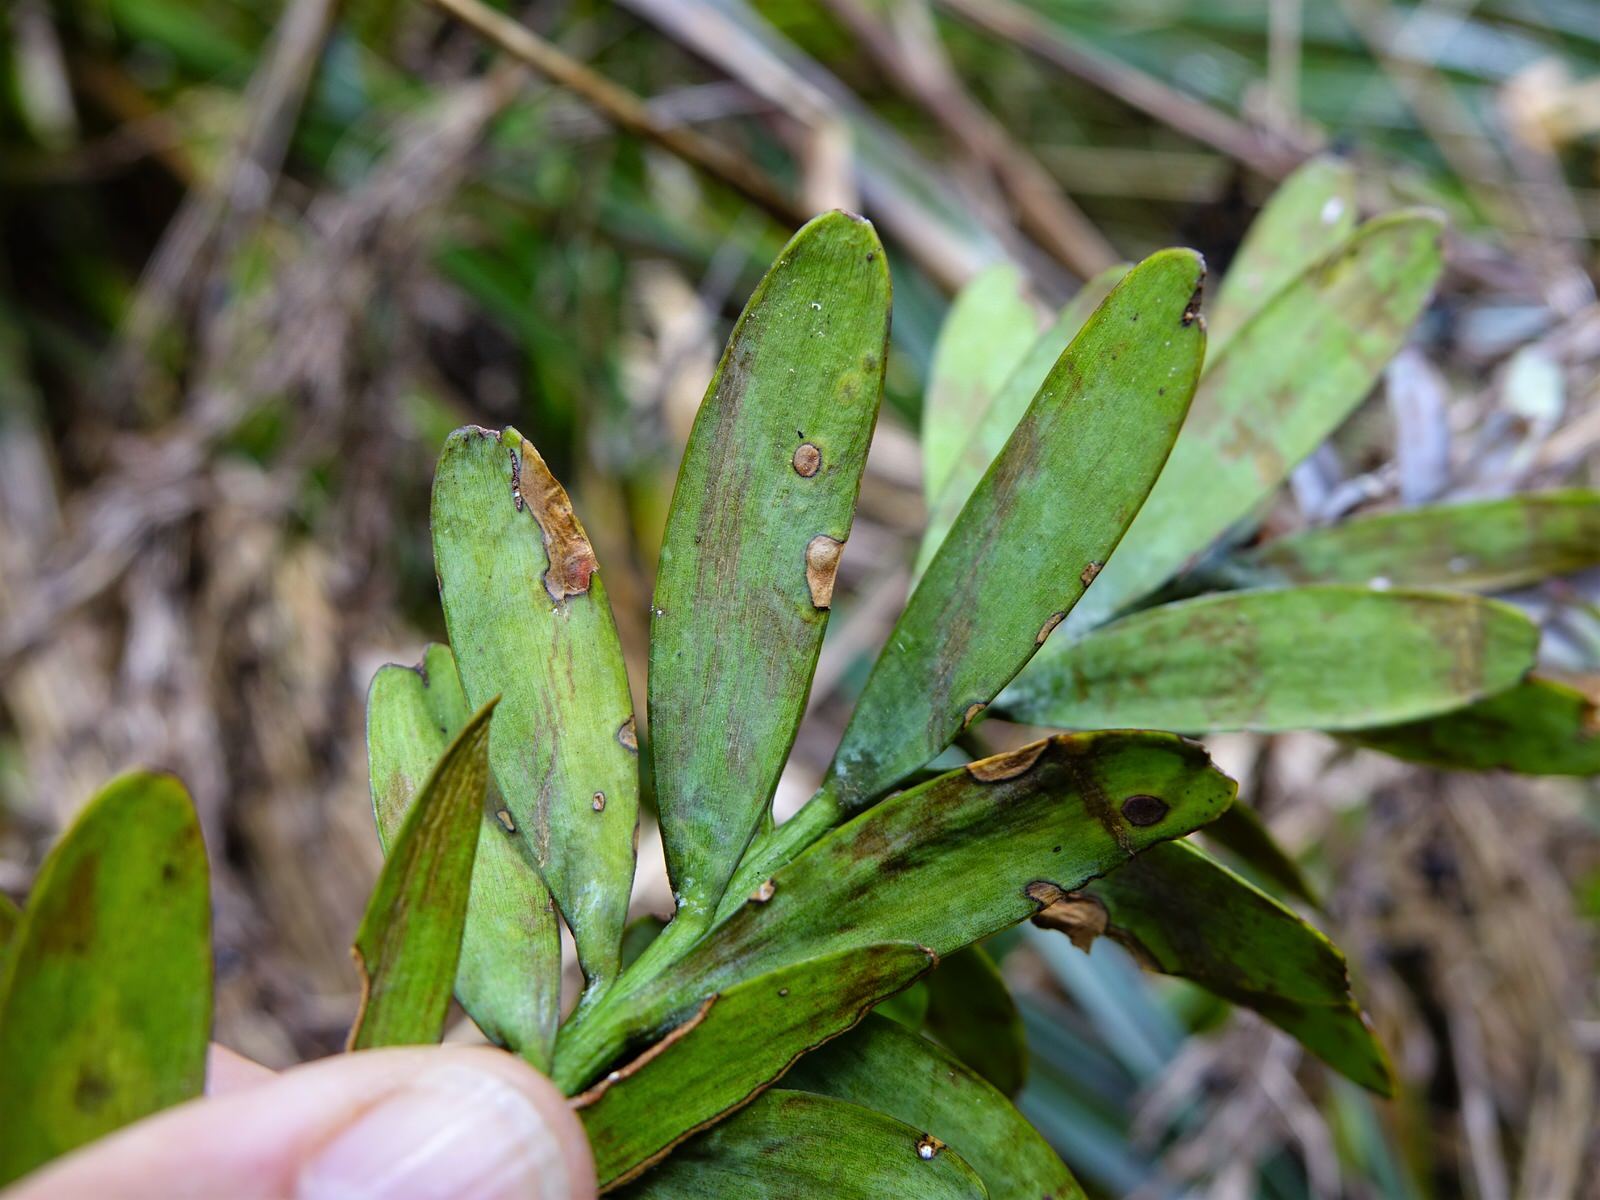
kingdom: Animalia
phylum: Arthropoda
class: Insecta
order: Lepidoptera
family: Gracillariidae
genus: Acrocercops
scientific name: Acrocercops leucotoma
